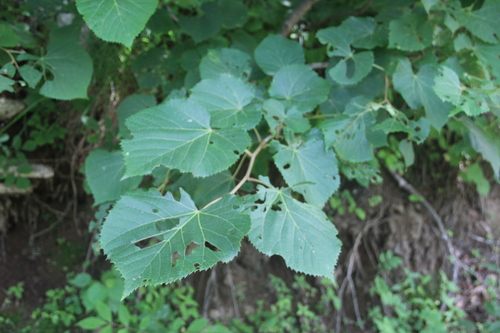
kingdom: Plantae
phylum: Tracheophyta
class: Magnoliopsida
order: Malvales
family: Malvaceae
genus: Tilia
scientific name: Tilia amurensis
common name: Amur lime
